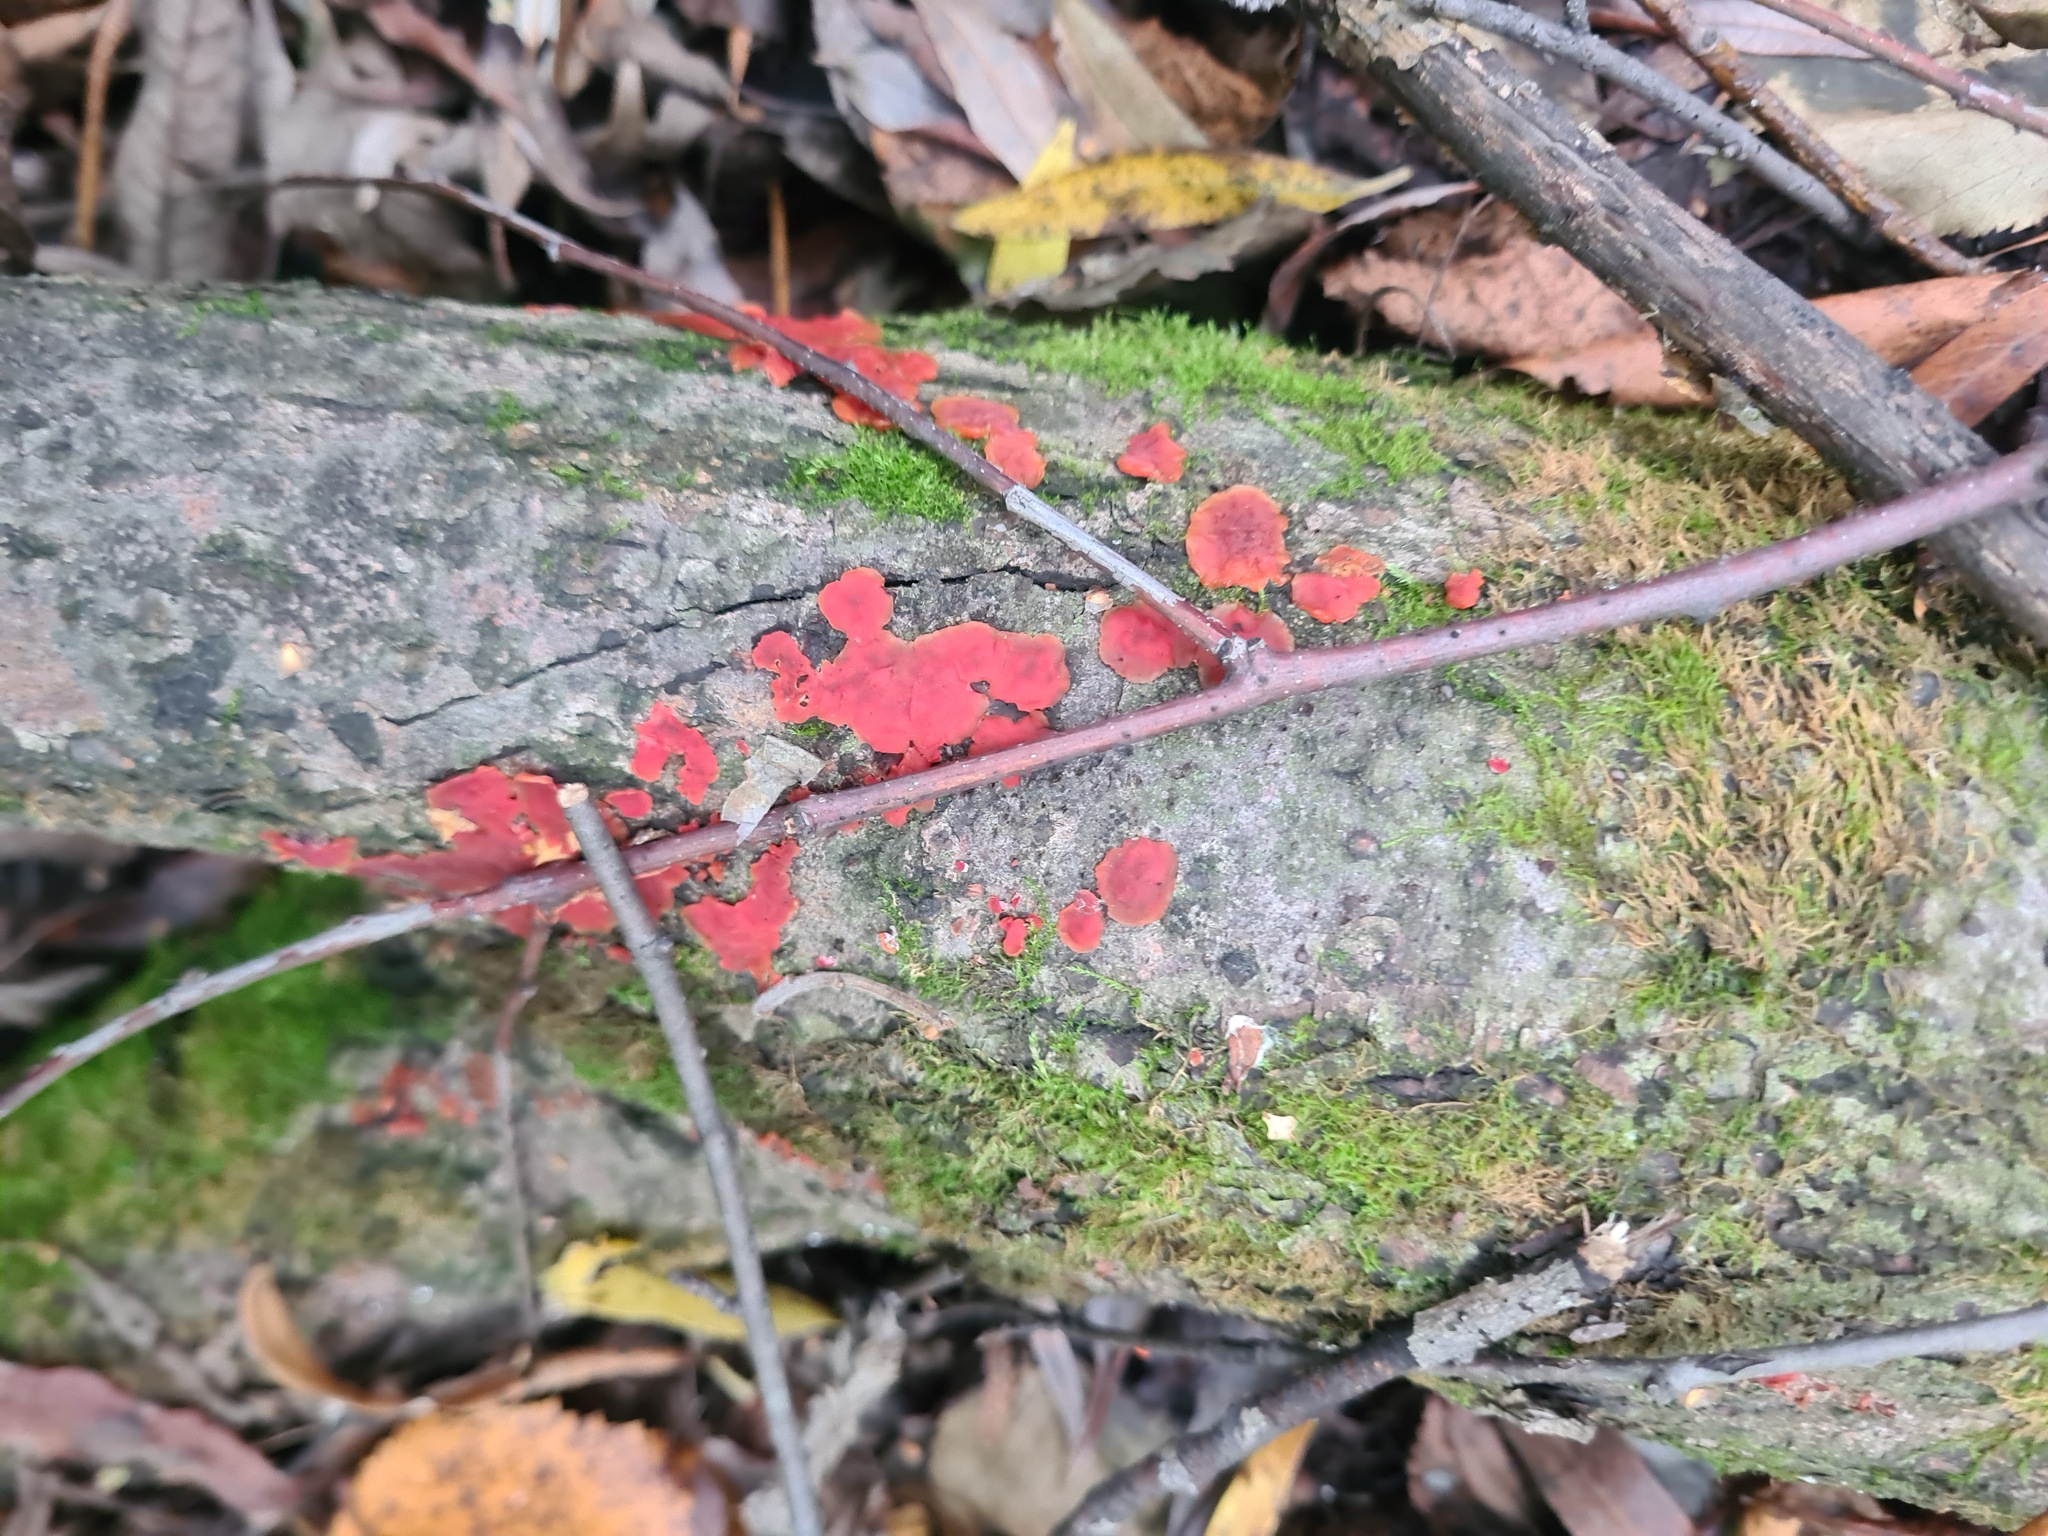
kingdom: Fungi
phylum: Basidiomycota
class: Agaricomycetes
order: Corticiales
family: Vuilleminiaceae
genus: Cytidia
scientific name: Cytidia salicina
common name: Scarlet splash
